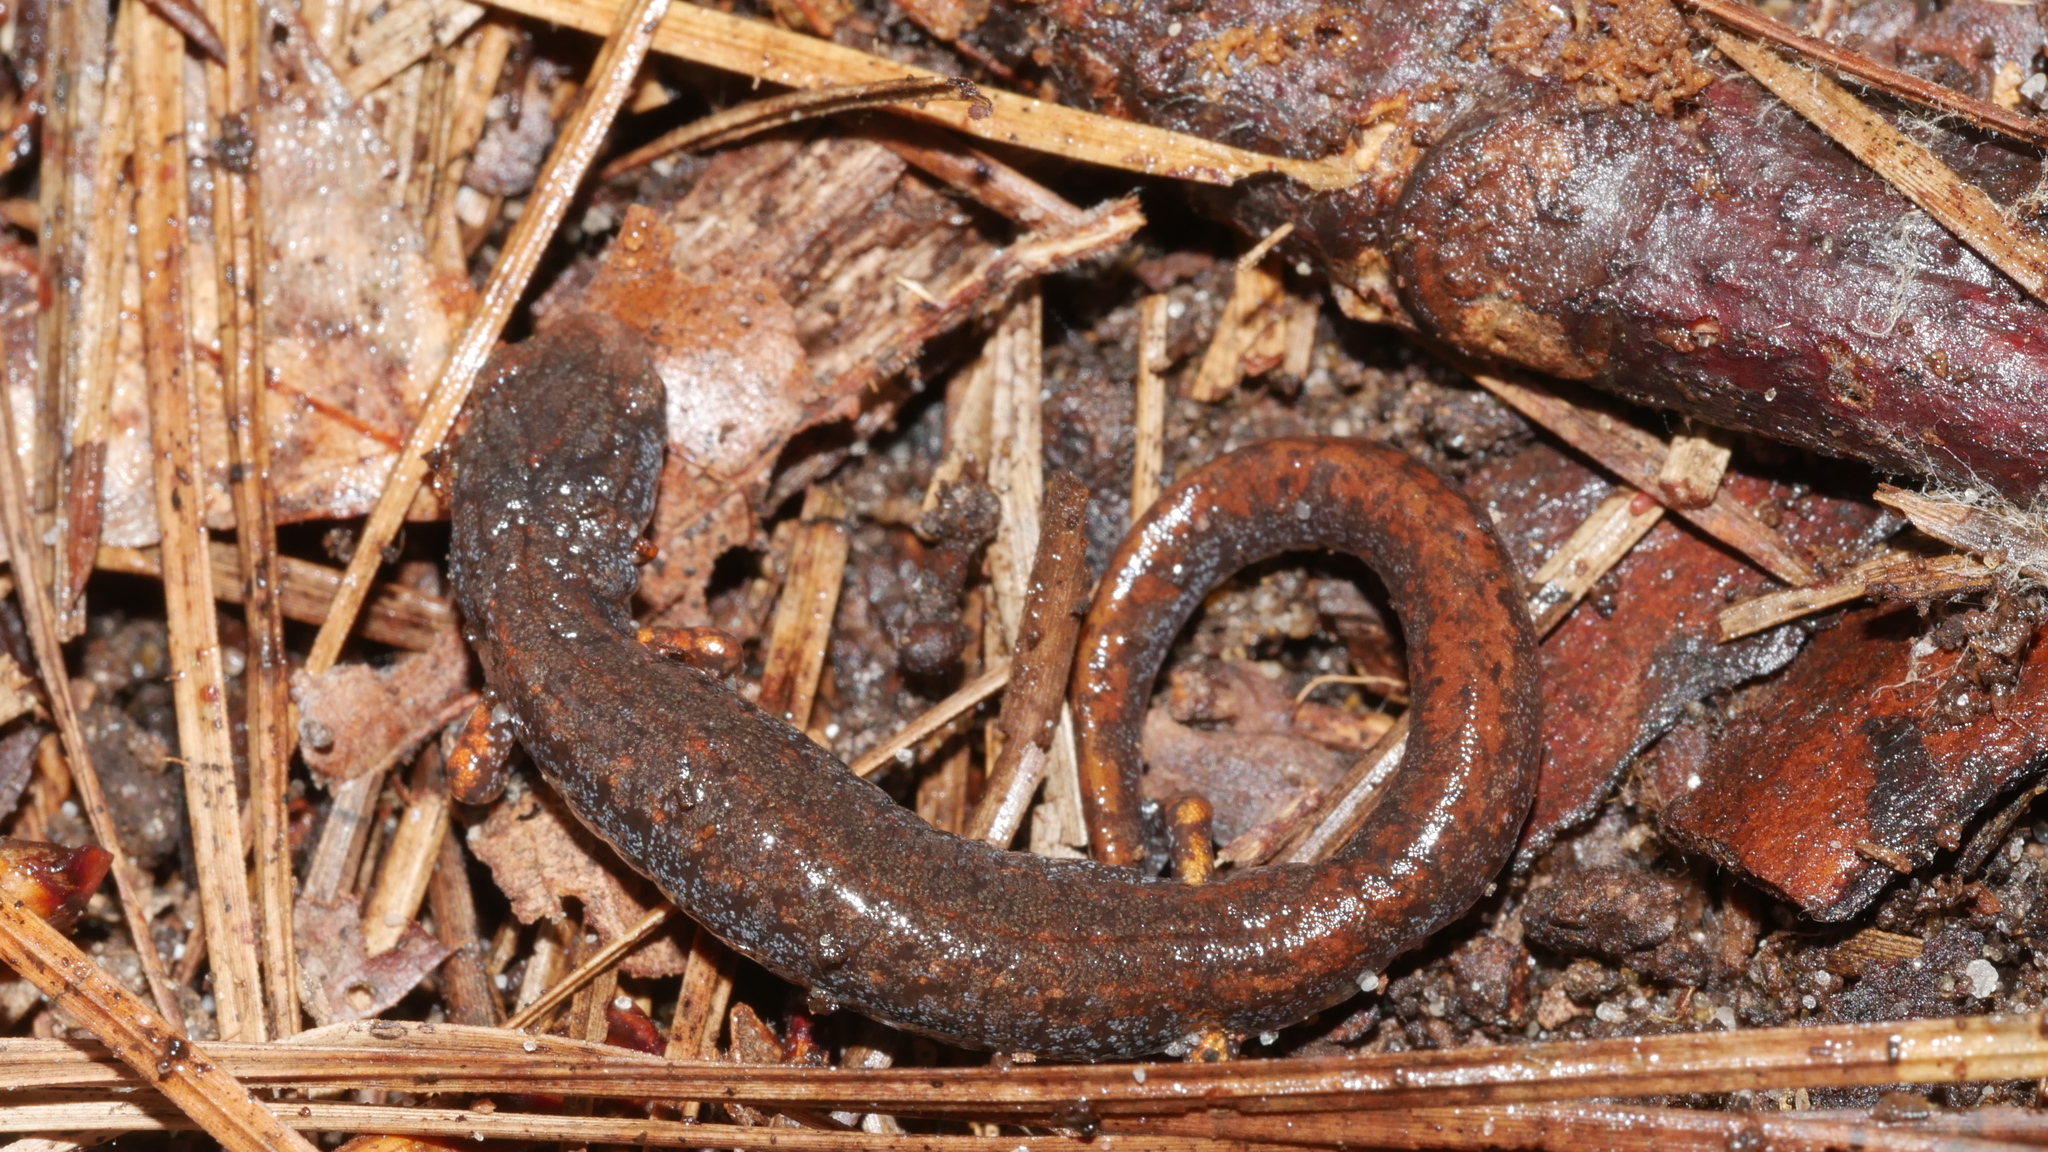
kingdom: Animalia
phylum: Chordata
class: Amphibia
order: Caudata
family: Plethodontidae
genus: Hemidactylium
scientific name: Hemidactylium scutatum
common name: Four-toed salamander
